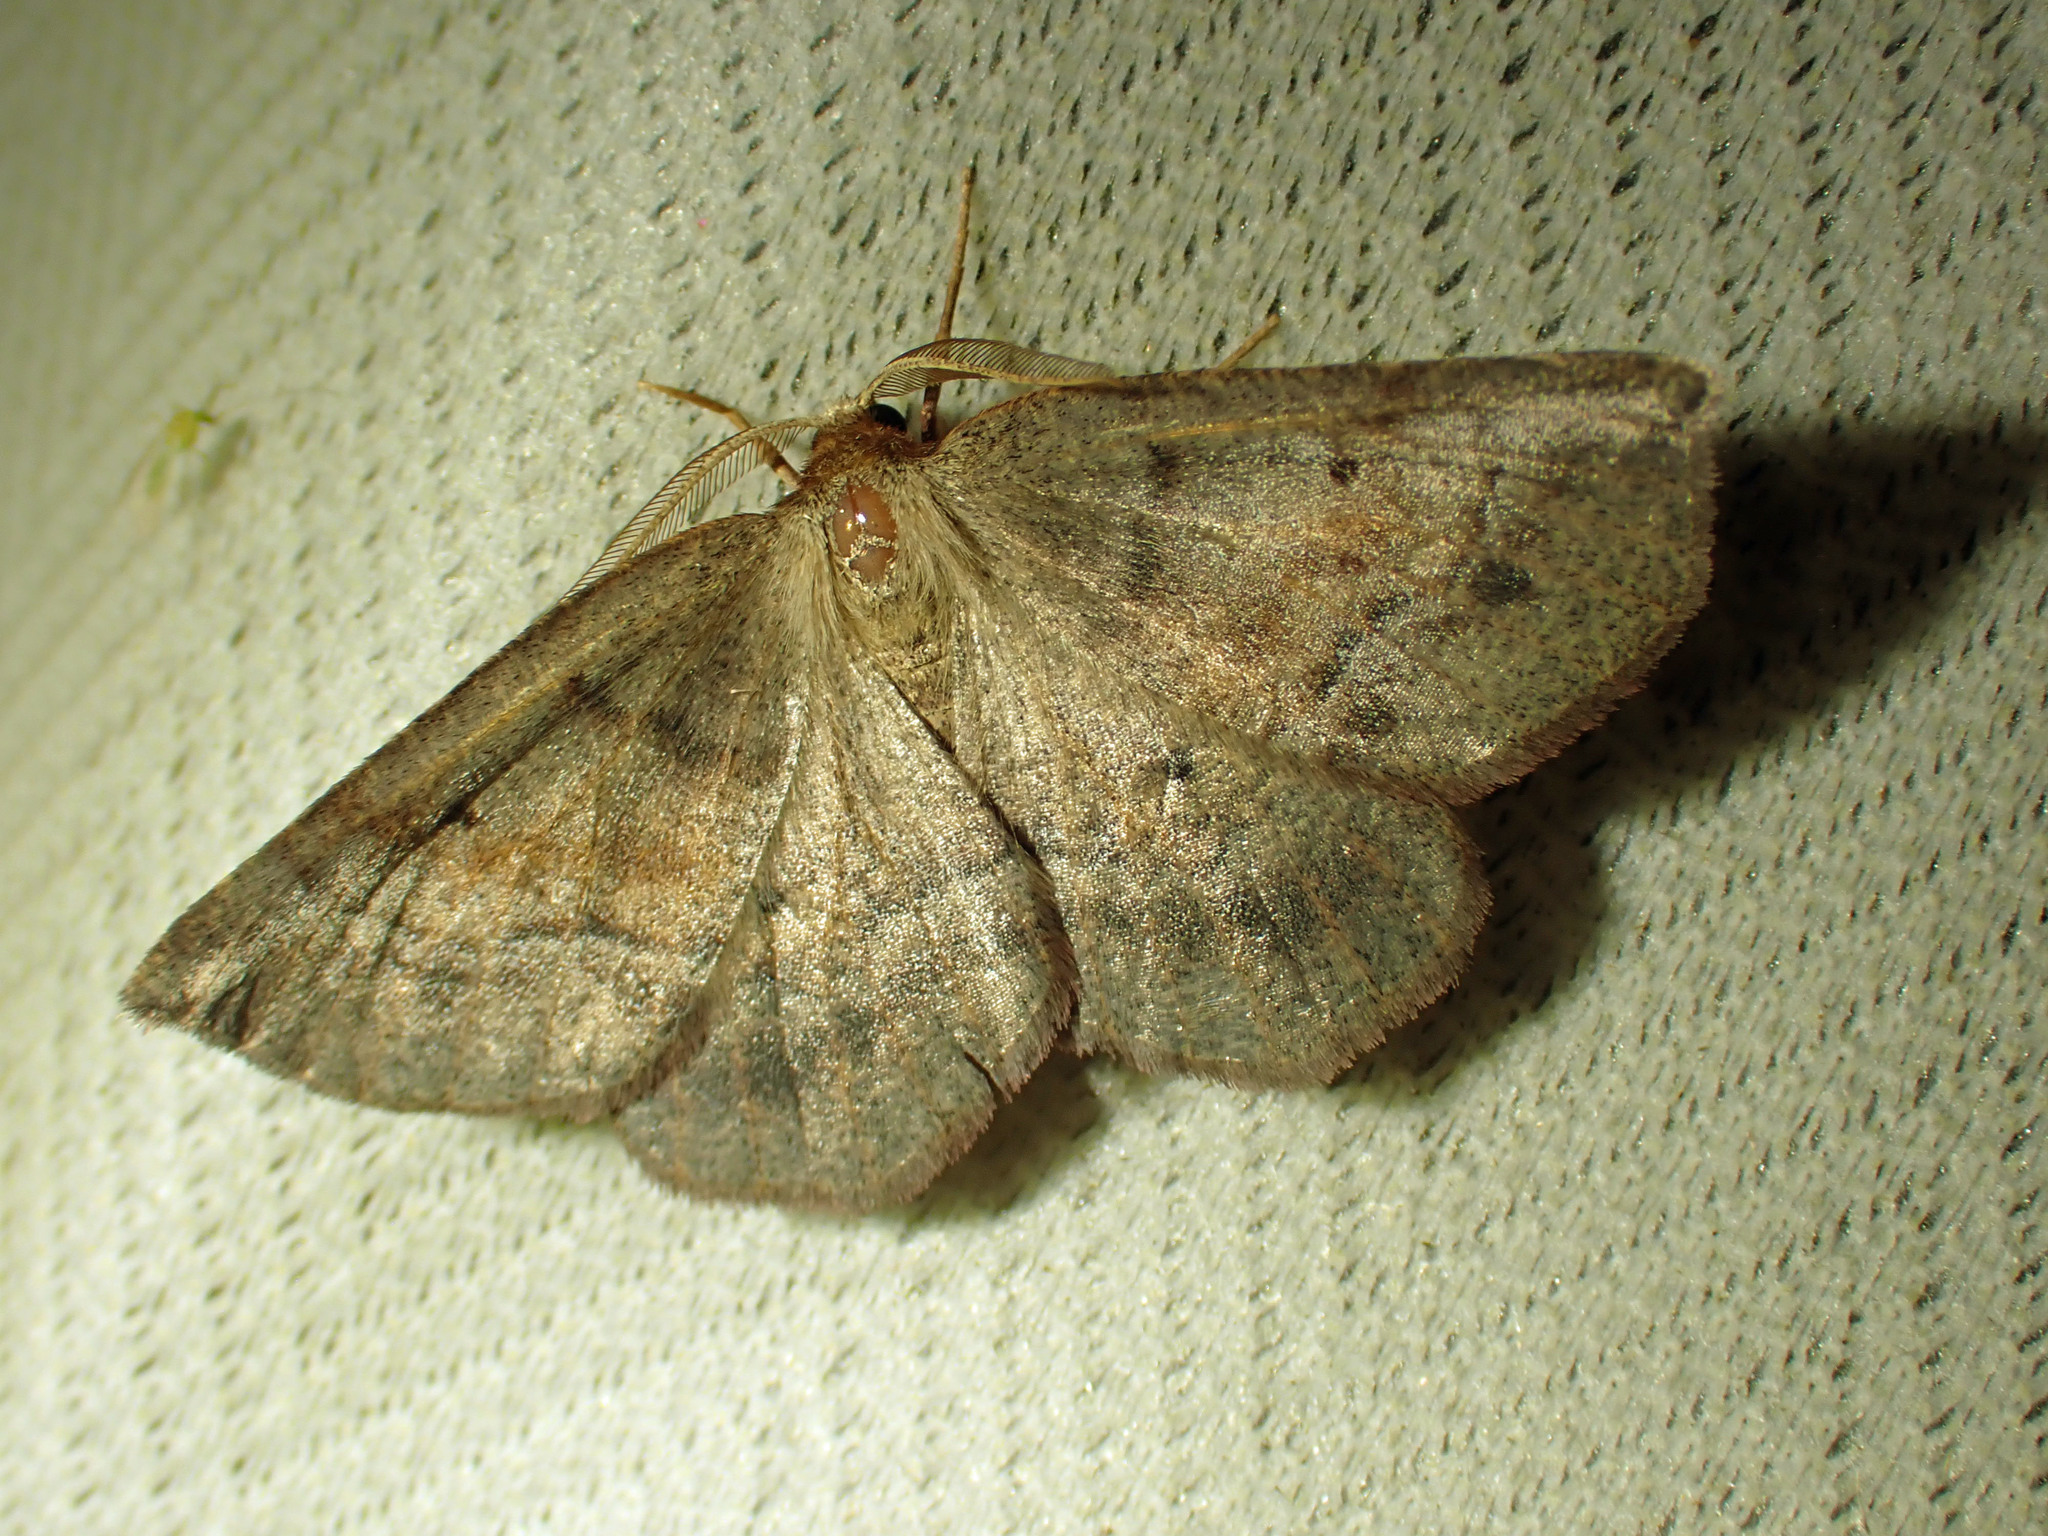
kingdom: Animalia
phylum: Arthropoda
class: Insecta
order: Lepidoptera
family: Geometridae
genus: Metarranthis
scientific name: Metarranthis duaria
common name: Ruddy metarranthis moth
